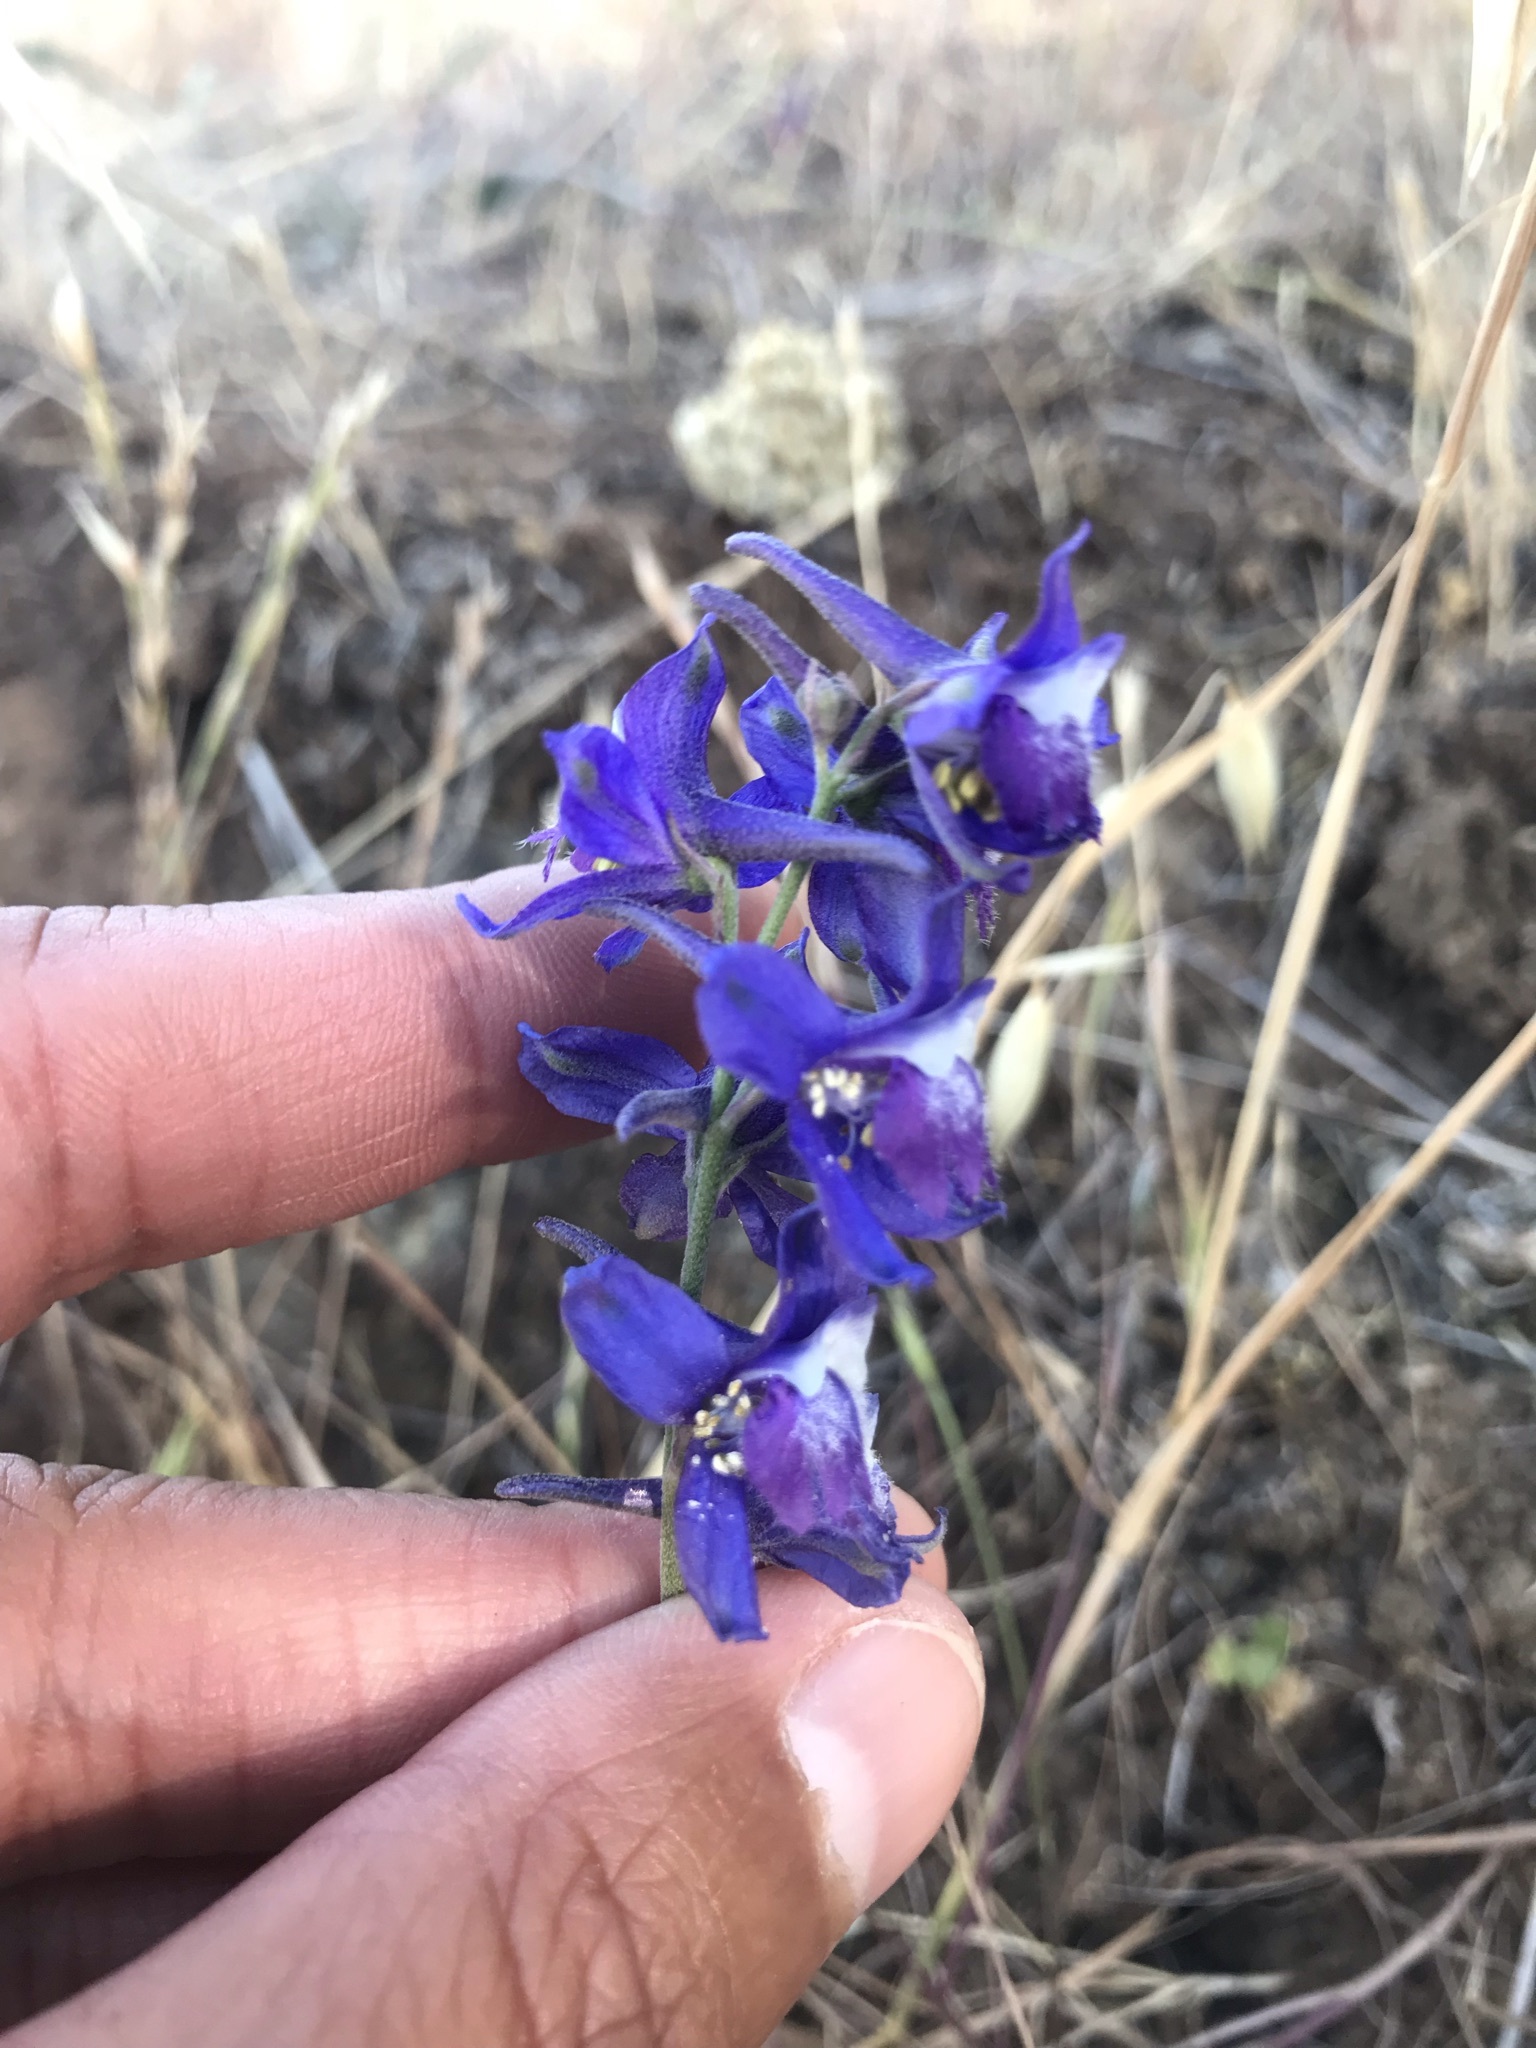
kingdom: Plantae
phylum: Tracheophyta
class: Magnoliopsida
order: Ranunculales
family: Ranunculaceae
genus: Delphinium
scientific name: Delphinium hesperium
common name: Western larkspur
